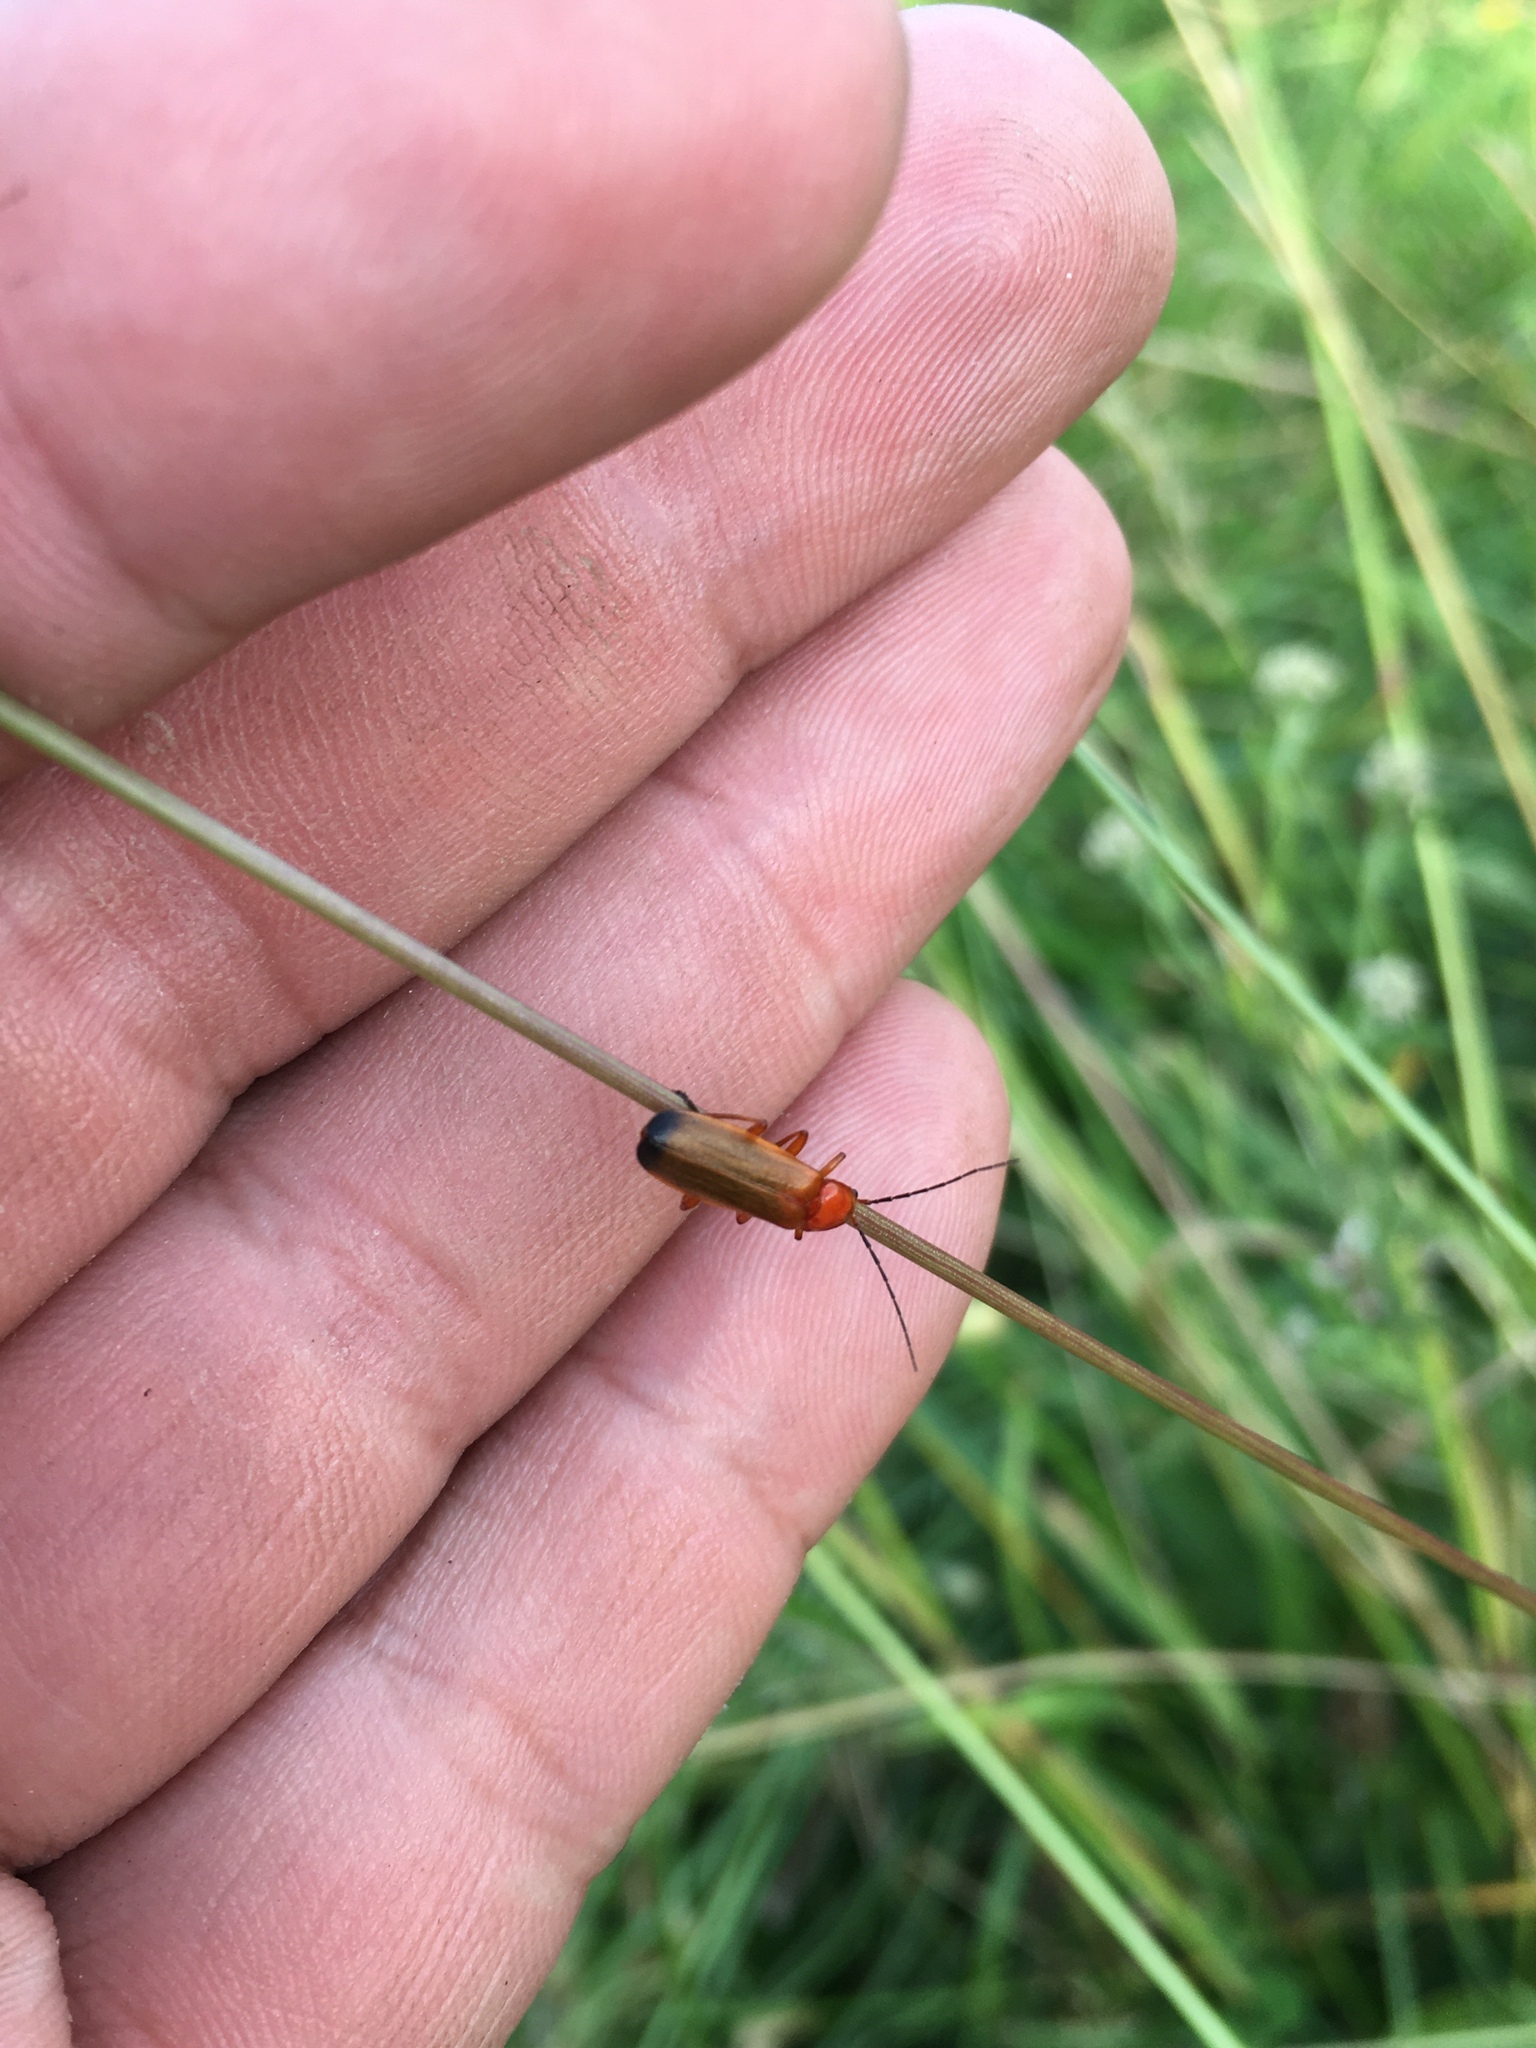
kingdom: Animalia
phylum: Arthropoda
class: Insecta
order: Coleoptera
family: Cantharidae
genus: Rhagonycha
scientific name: Rhagonycha fulva
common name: Common red soldier beetle
